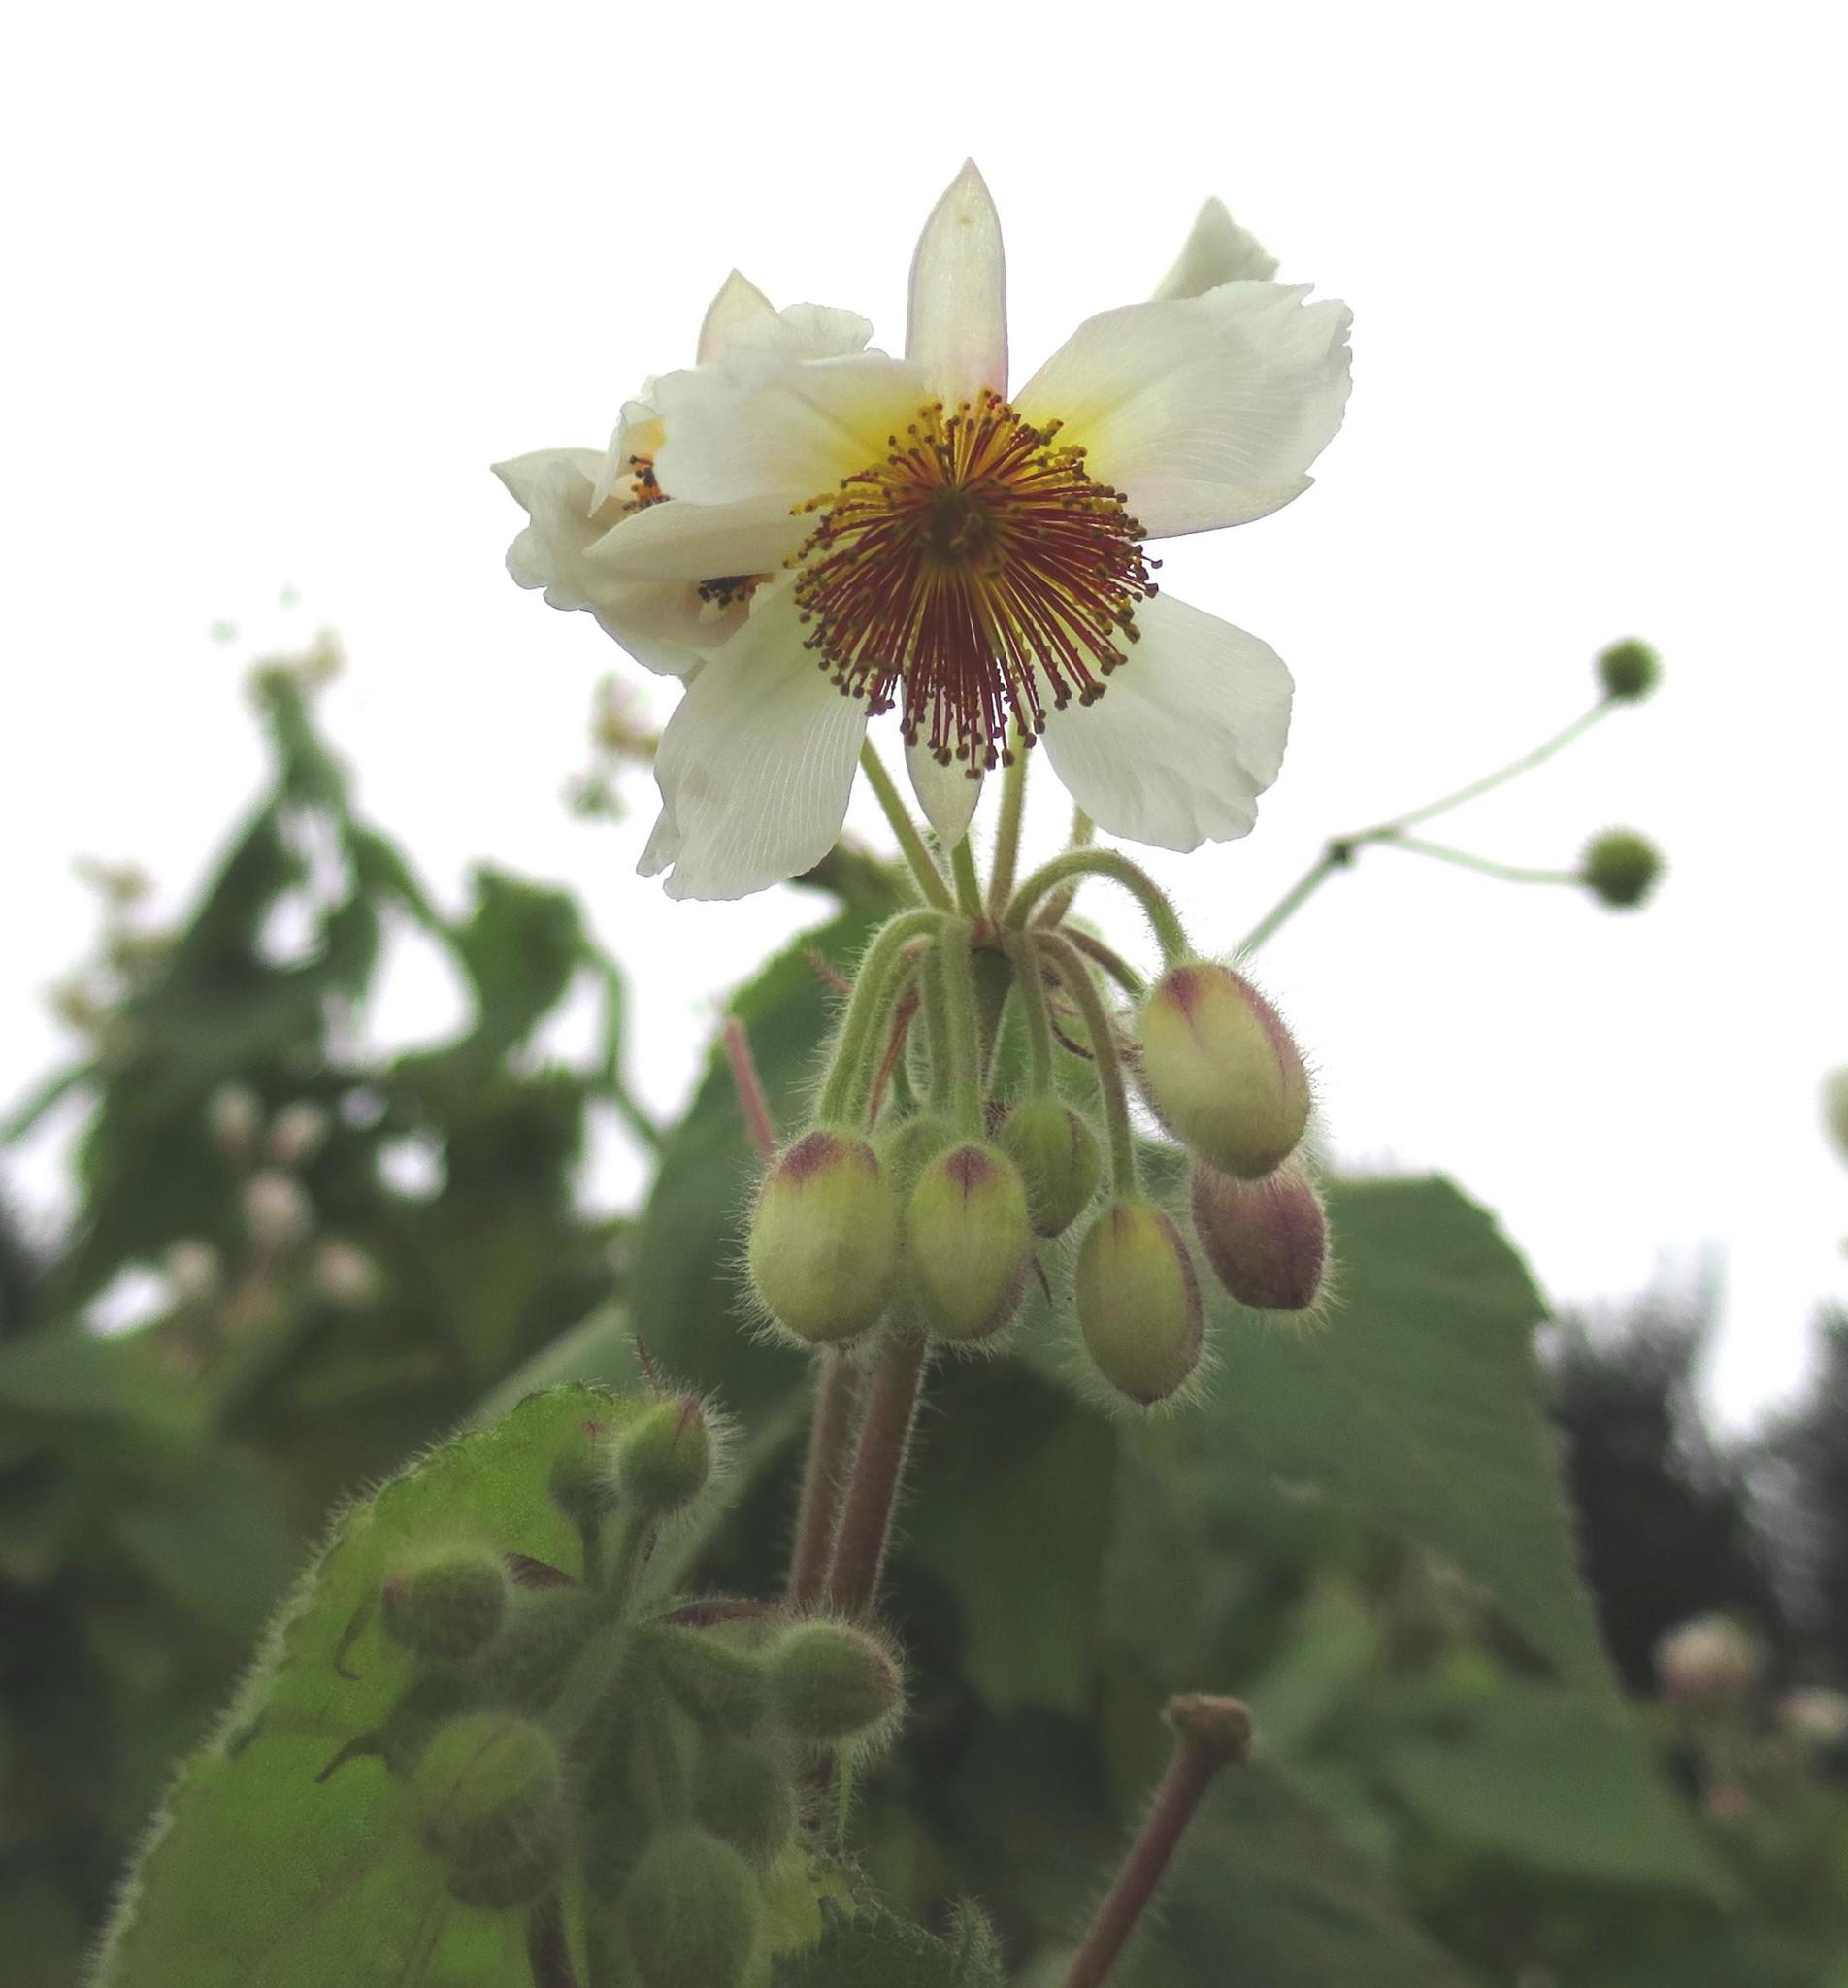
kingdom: Plantae
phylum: Tracheophyta
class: Magnoliopsida
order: Malvales
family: Malvaceae
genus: Sparrmannia
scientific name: Sparrmannia africana
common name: African-hemp
